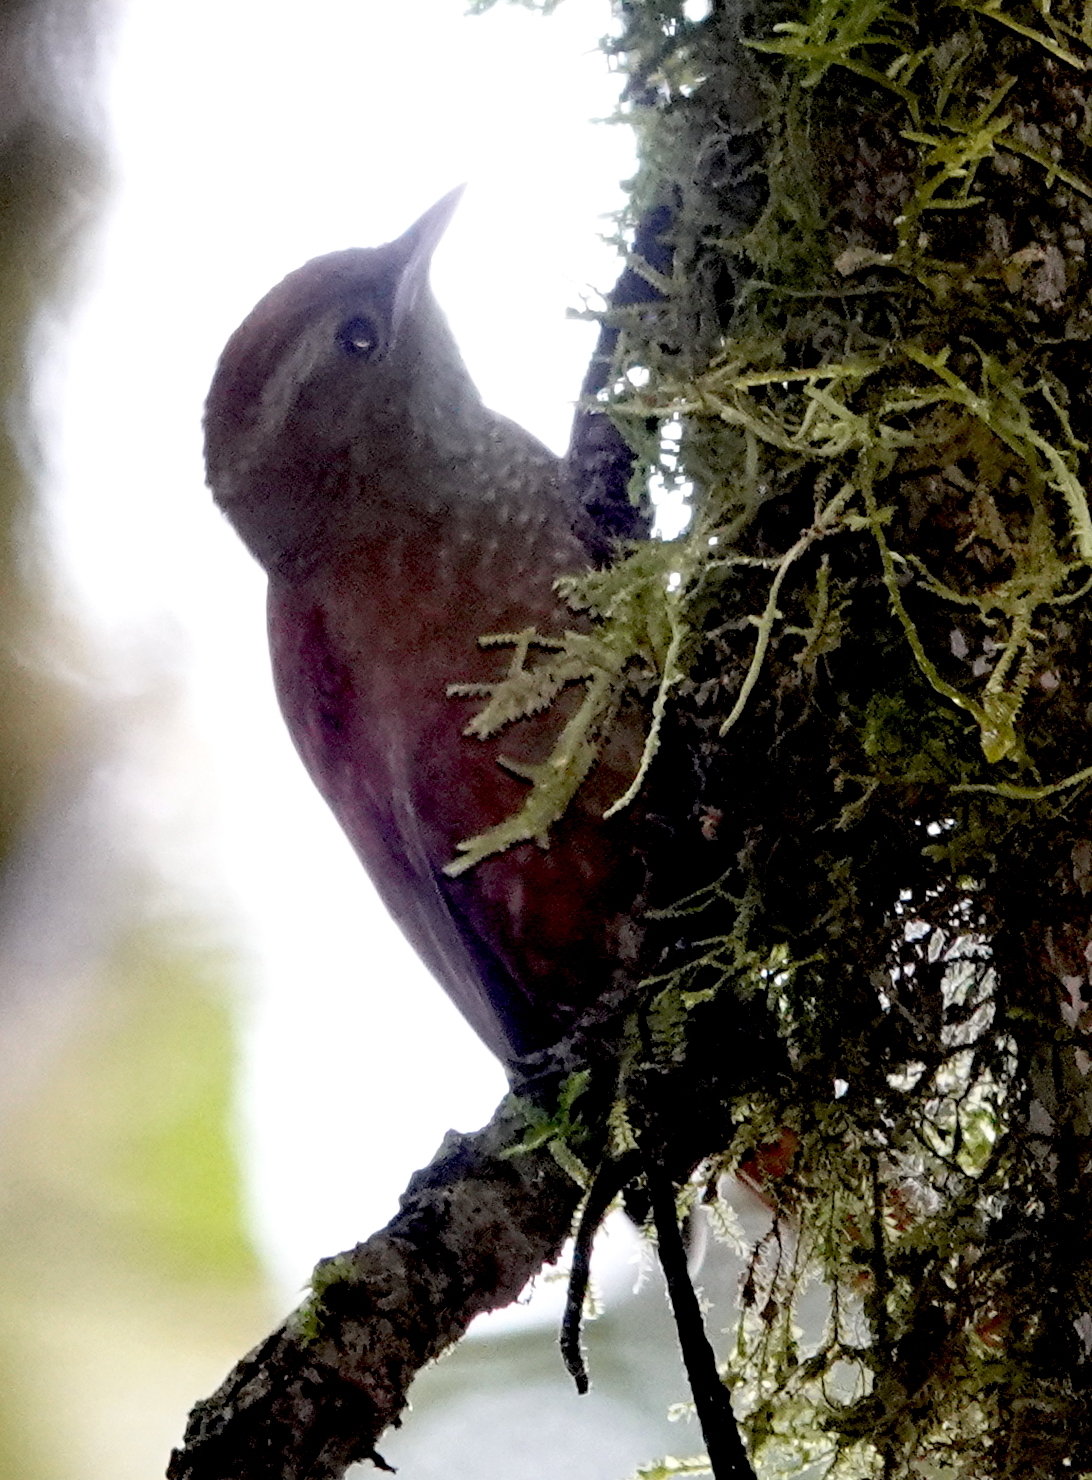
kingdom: Animalia
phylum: Chordata
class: Aves
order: Passeriformes
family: Furnariidae
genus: Margarornis
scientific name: Margarornis rubiginosus
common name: Ruddy treerunner
